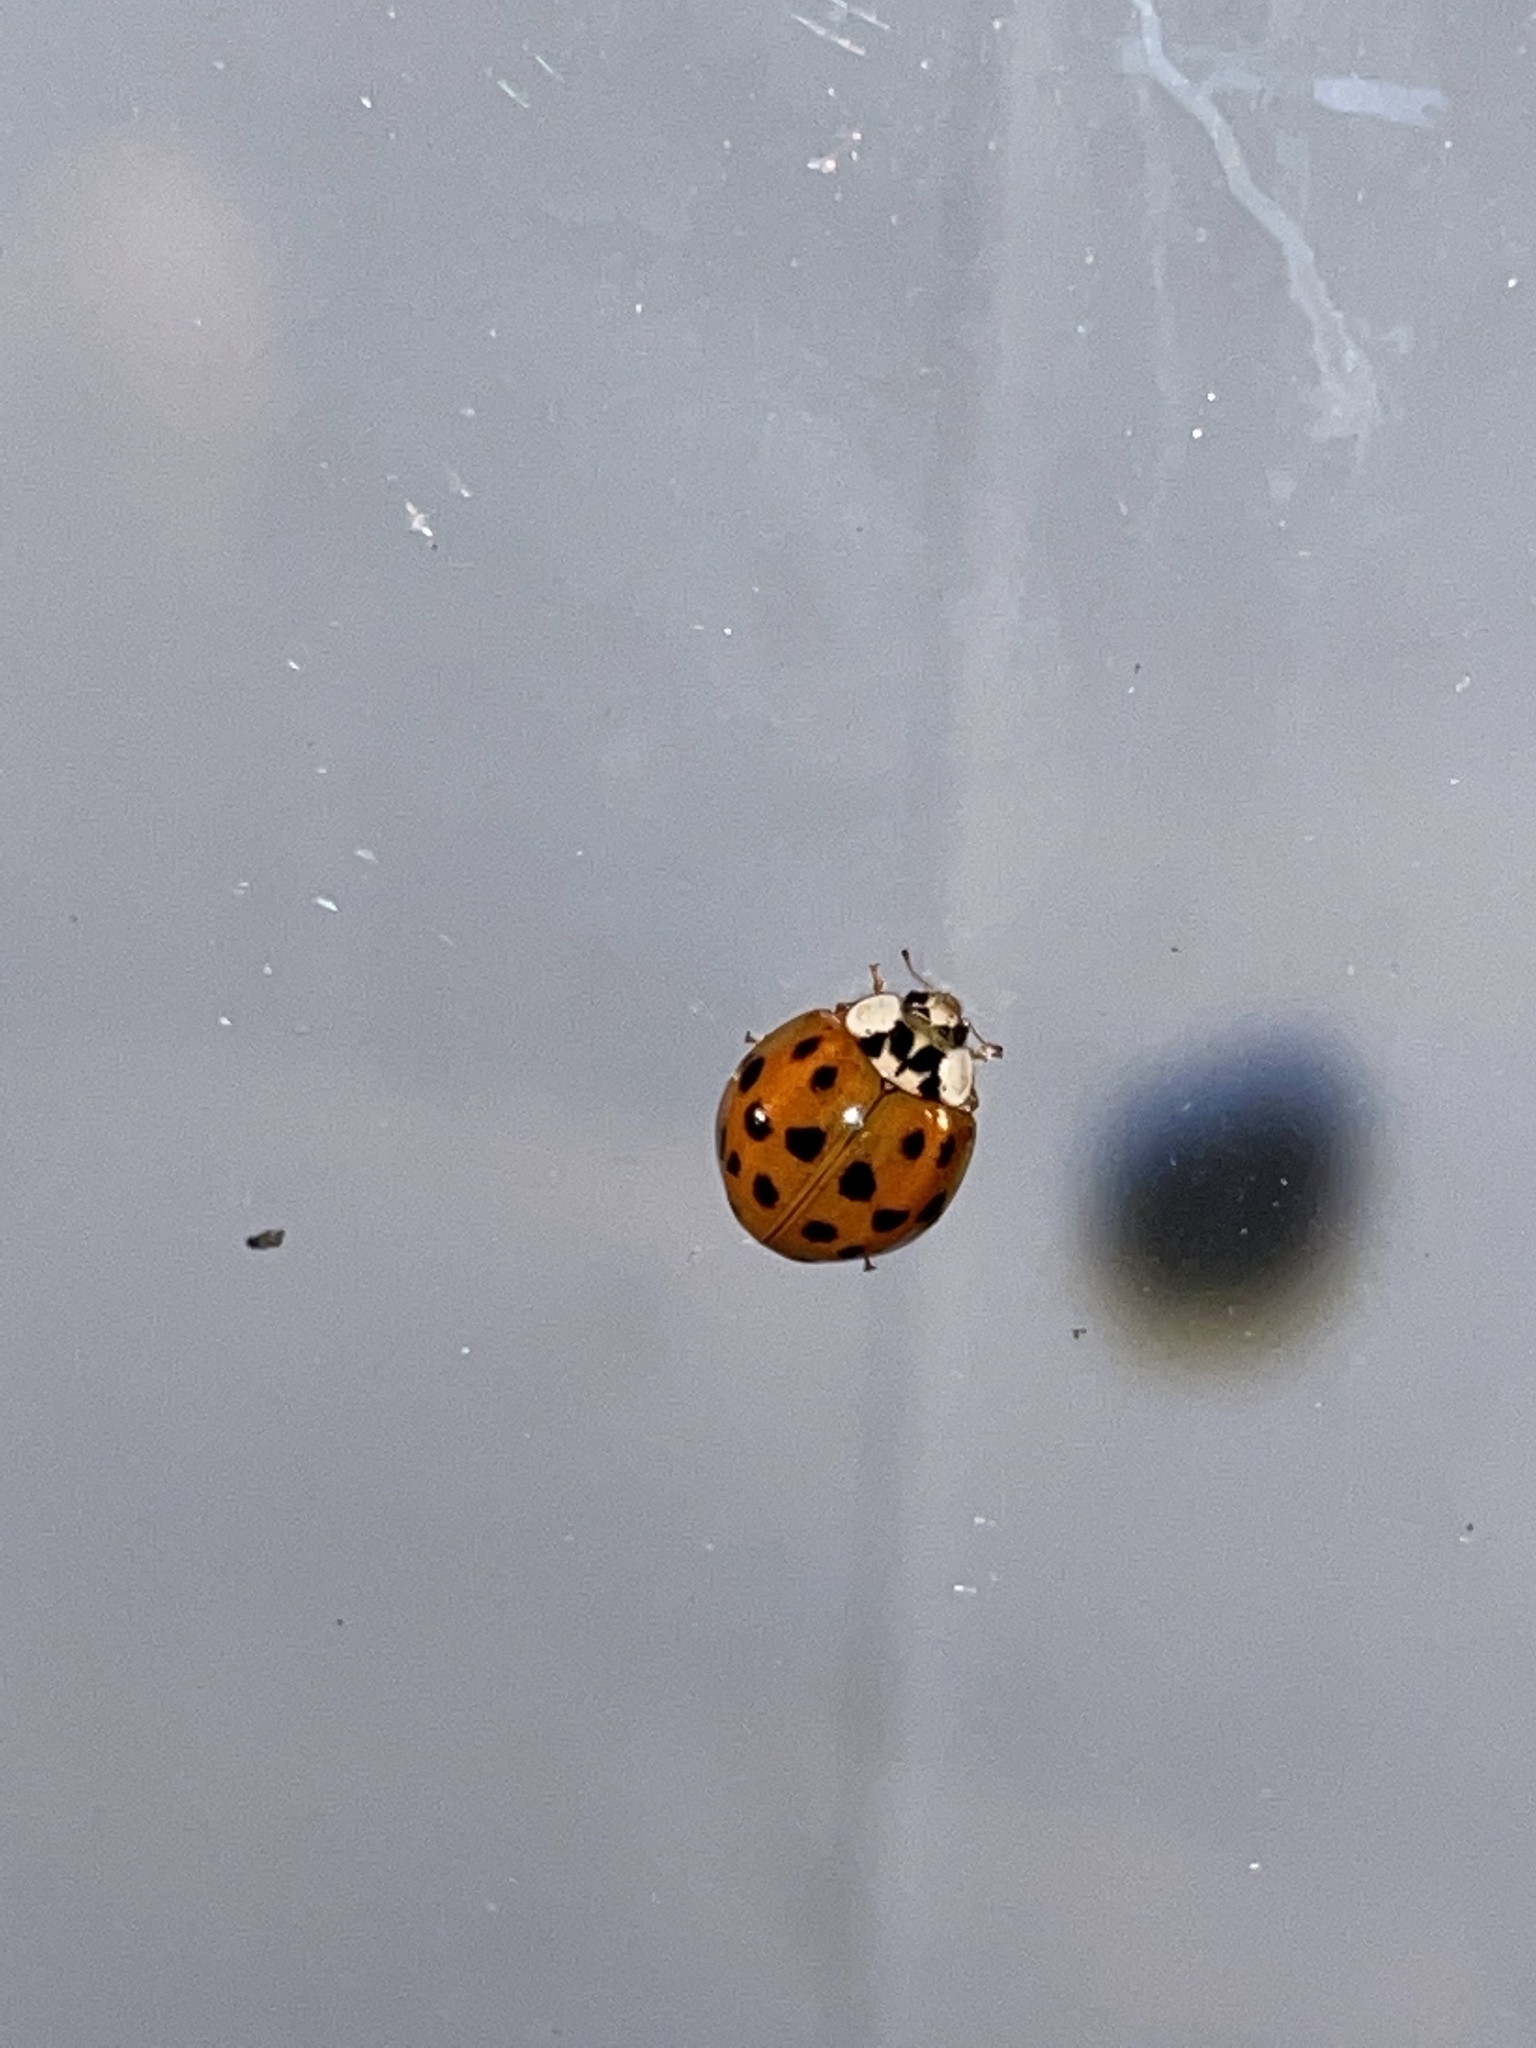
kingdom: Animalia
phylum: Arthropoda
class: Insecta
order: Coleoptera
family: Coccinellidae
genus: Harmonia
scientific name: Harmonia axyridis
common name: Harlequin ladybird
